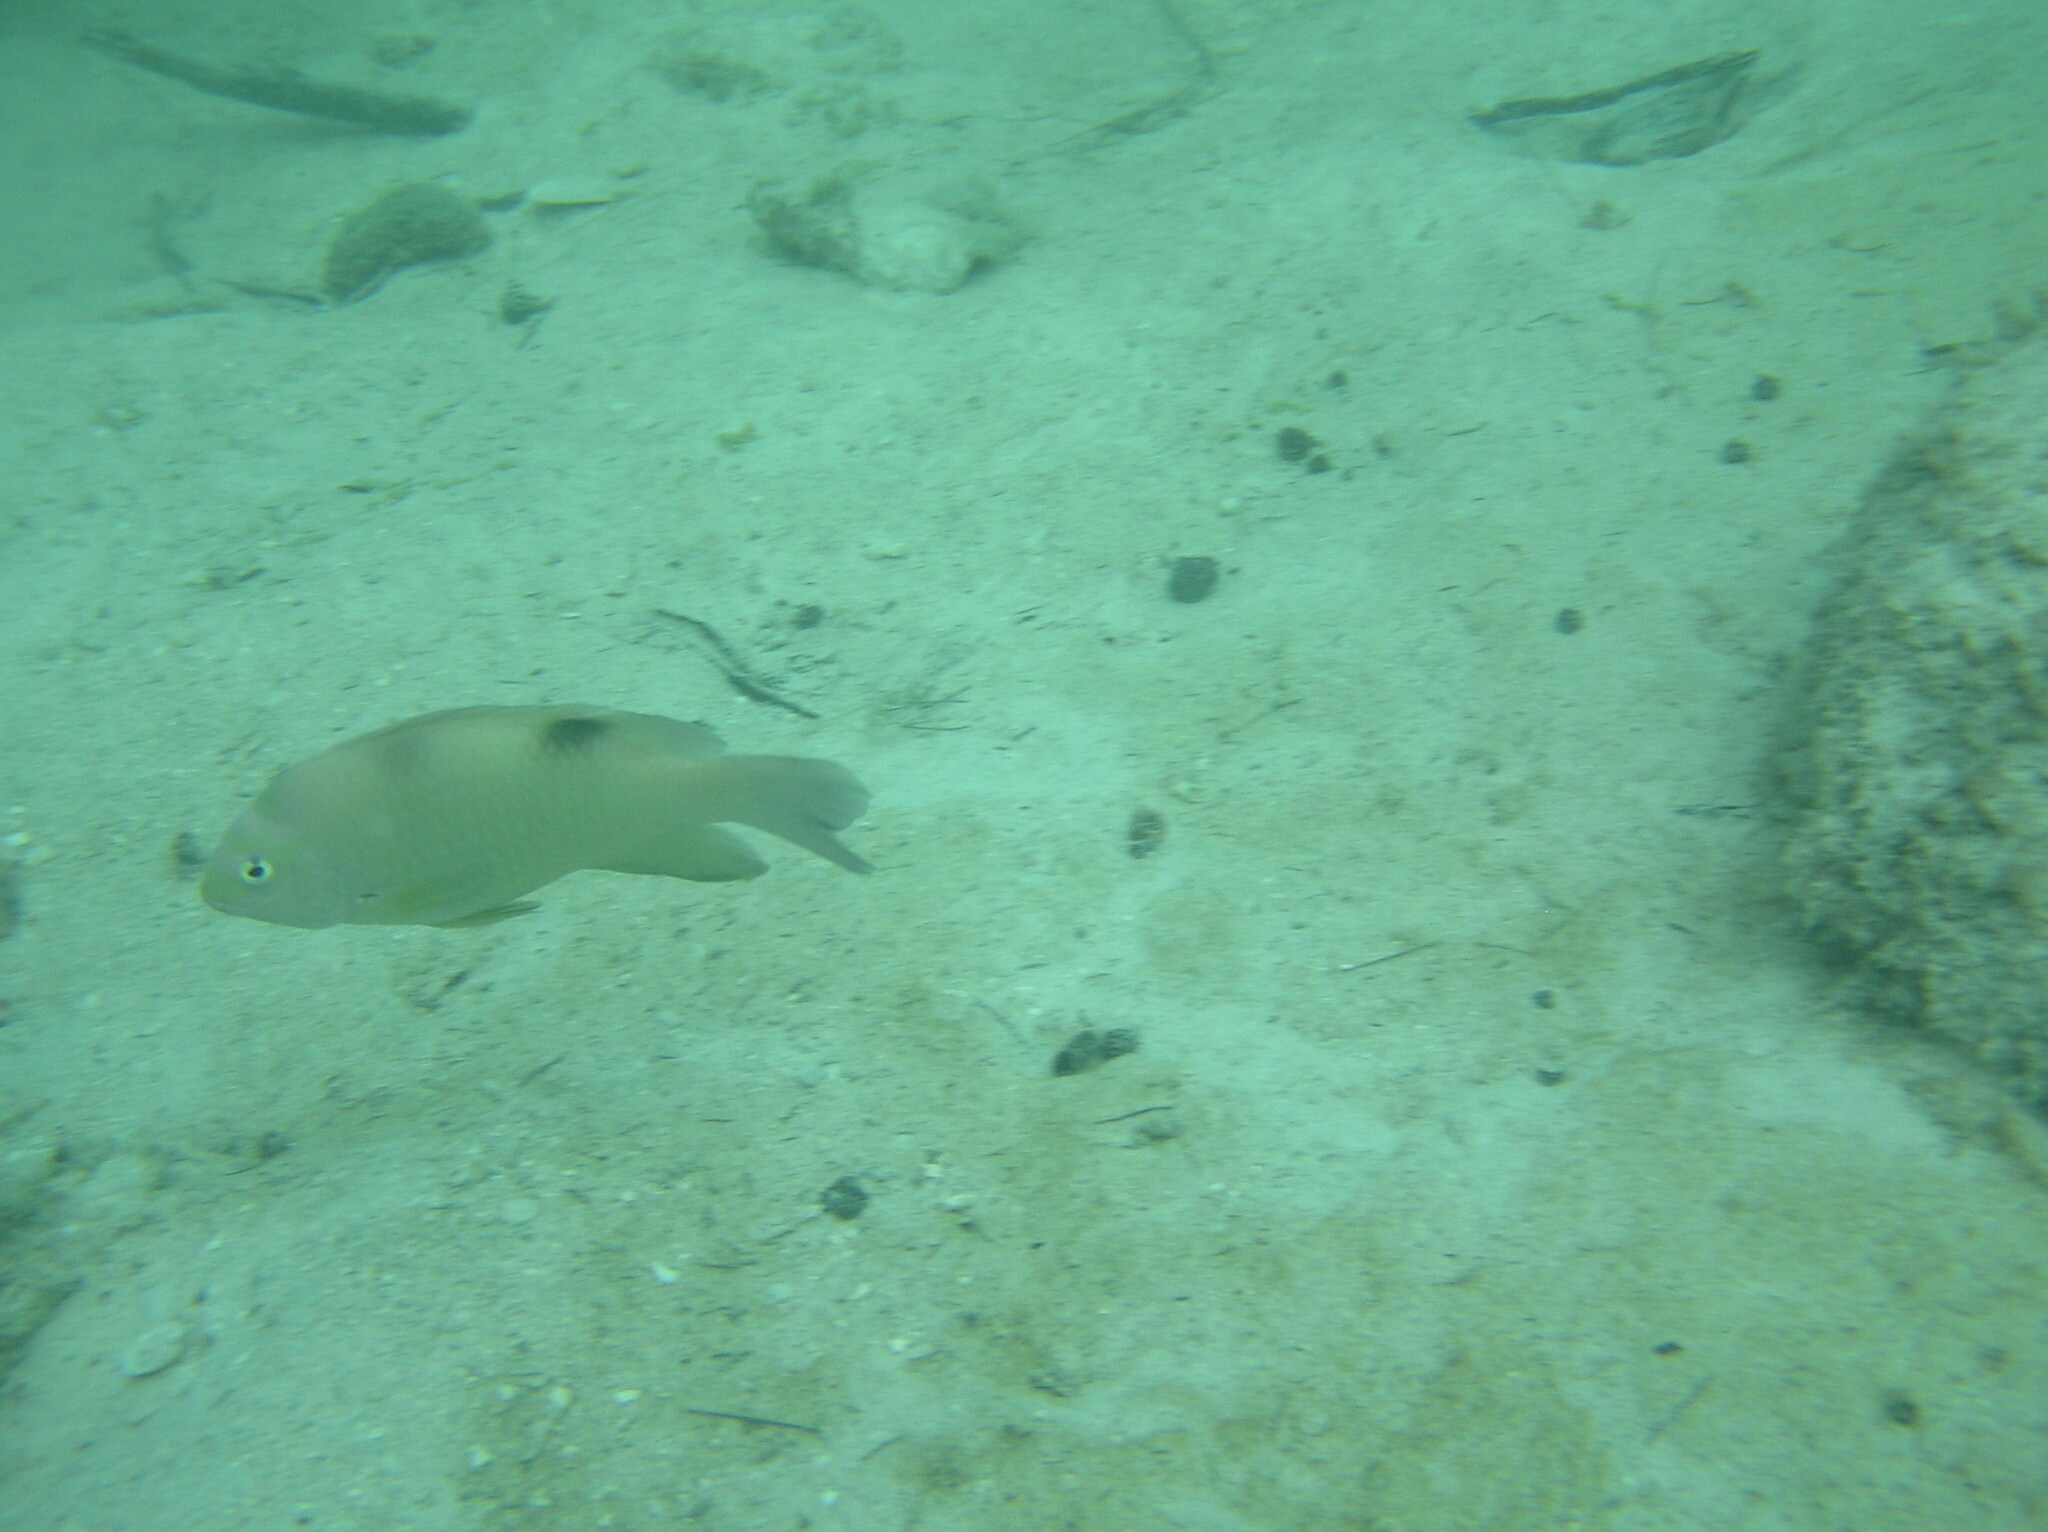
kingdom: Animalia
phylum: Chordata
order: Perciformes
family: Pomacentridae
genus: Dischistodus
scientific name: Dischistodus perspicillatus
